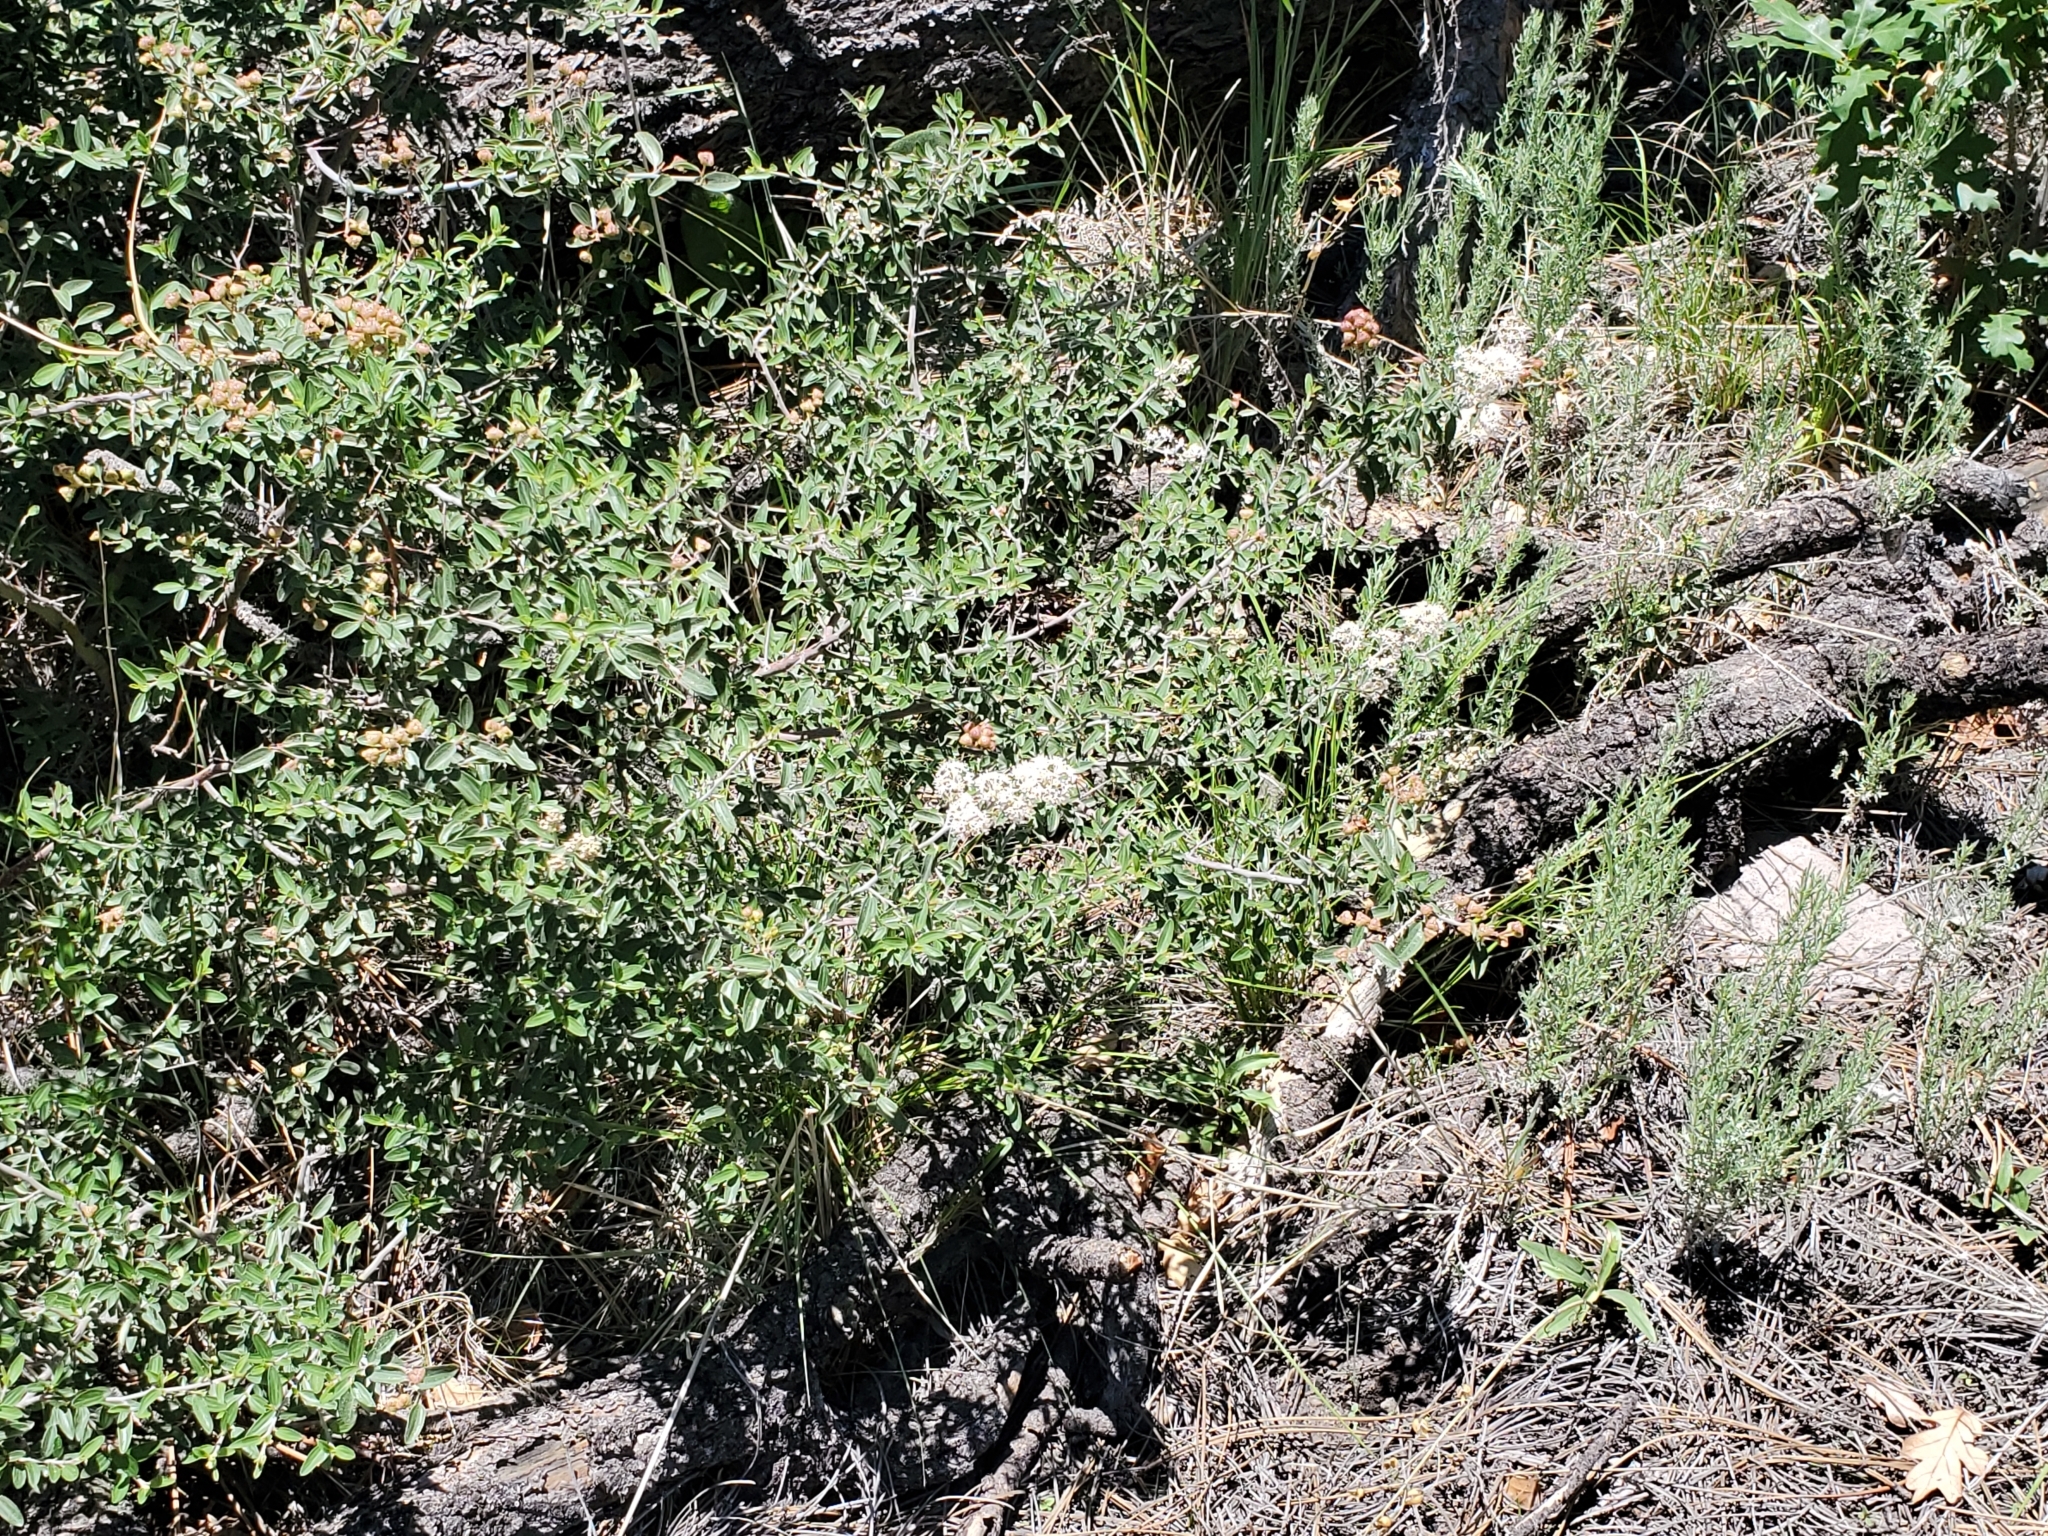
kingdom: Plantae
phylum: Tracheophyta
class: Magnoliopsida
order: Rosales
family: Rhamnaceae
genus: Ceanothus
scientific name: Ceanothus fendleri
